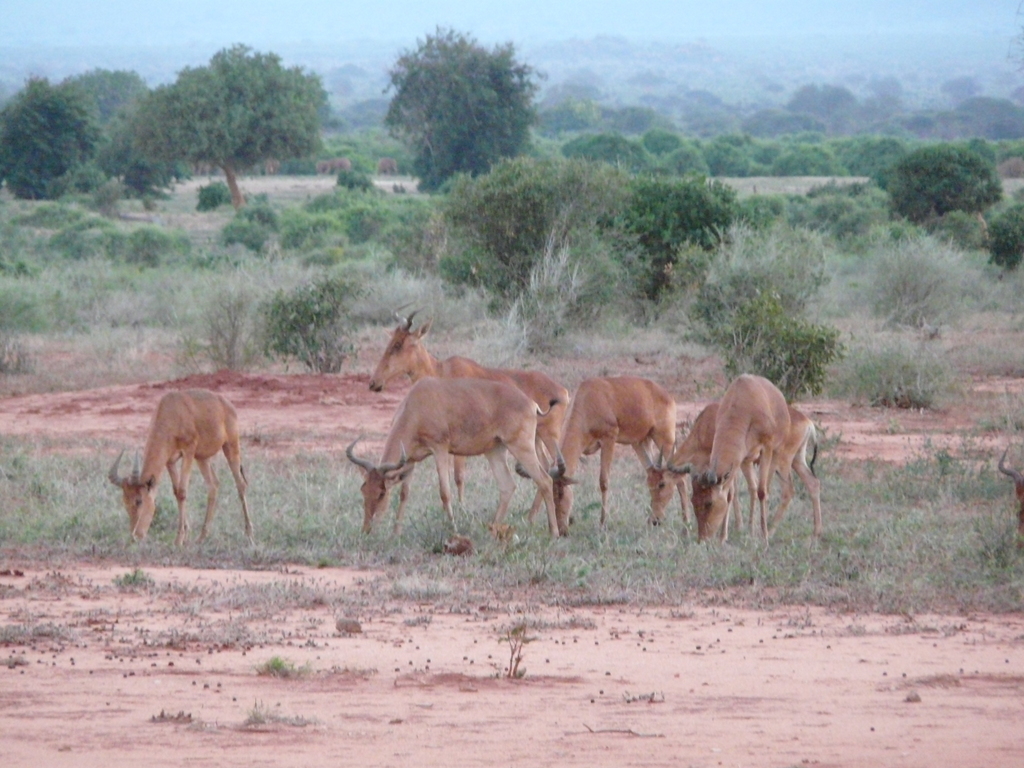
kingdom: Animalia
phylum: Chordata
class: Mammalia
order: Artiodactyla
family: Bovidae
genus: Alcelaphus
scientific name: Alcelaphus buselaphus
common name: Hartebeest
